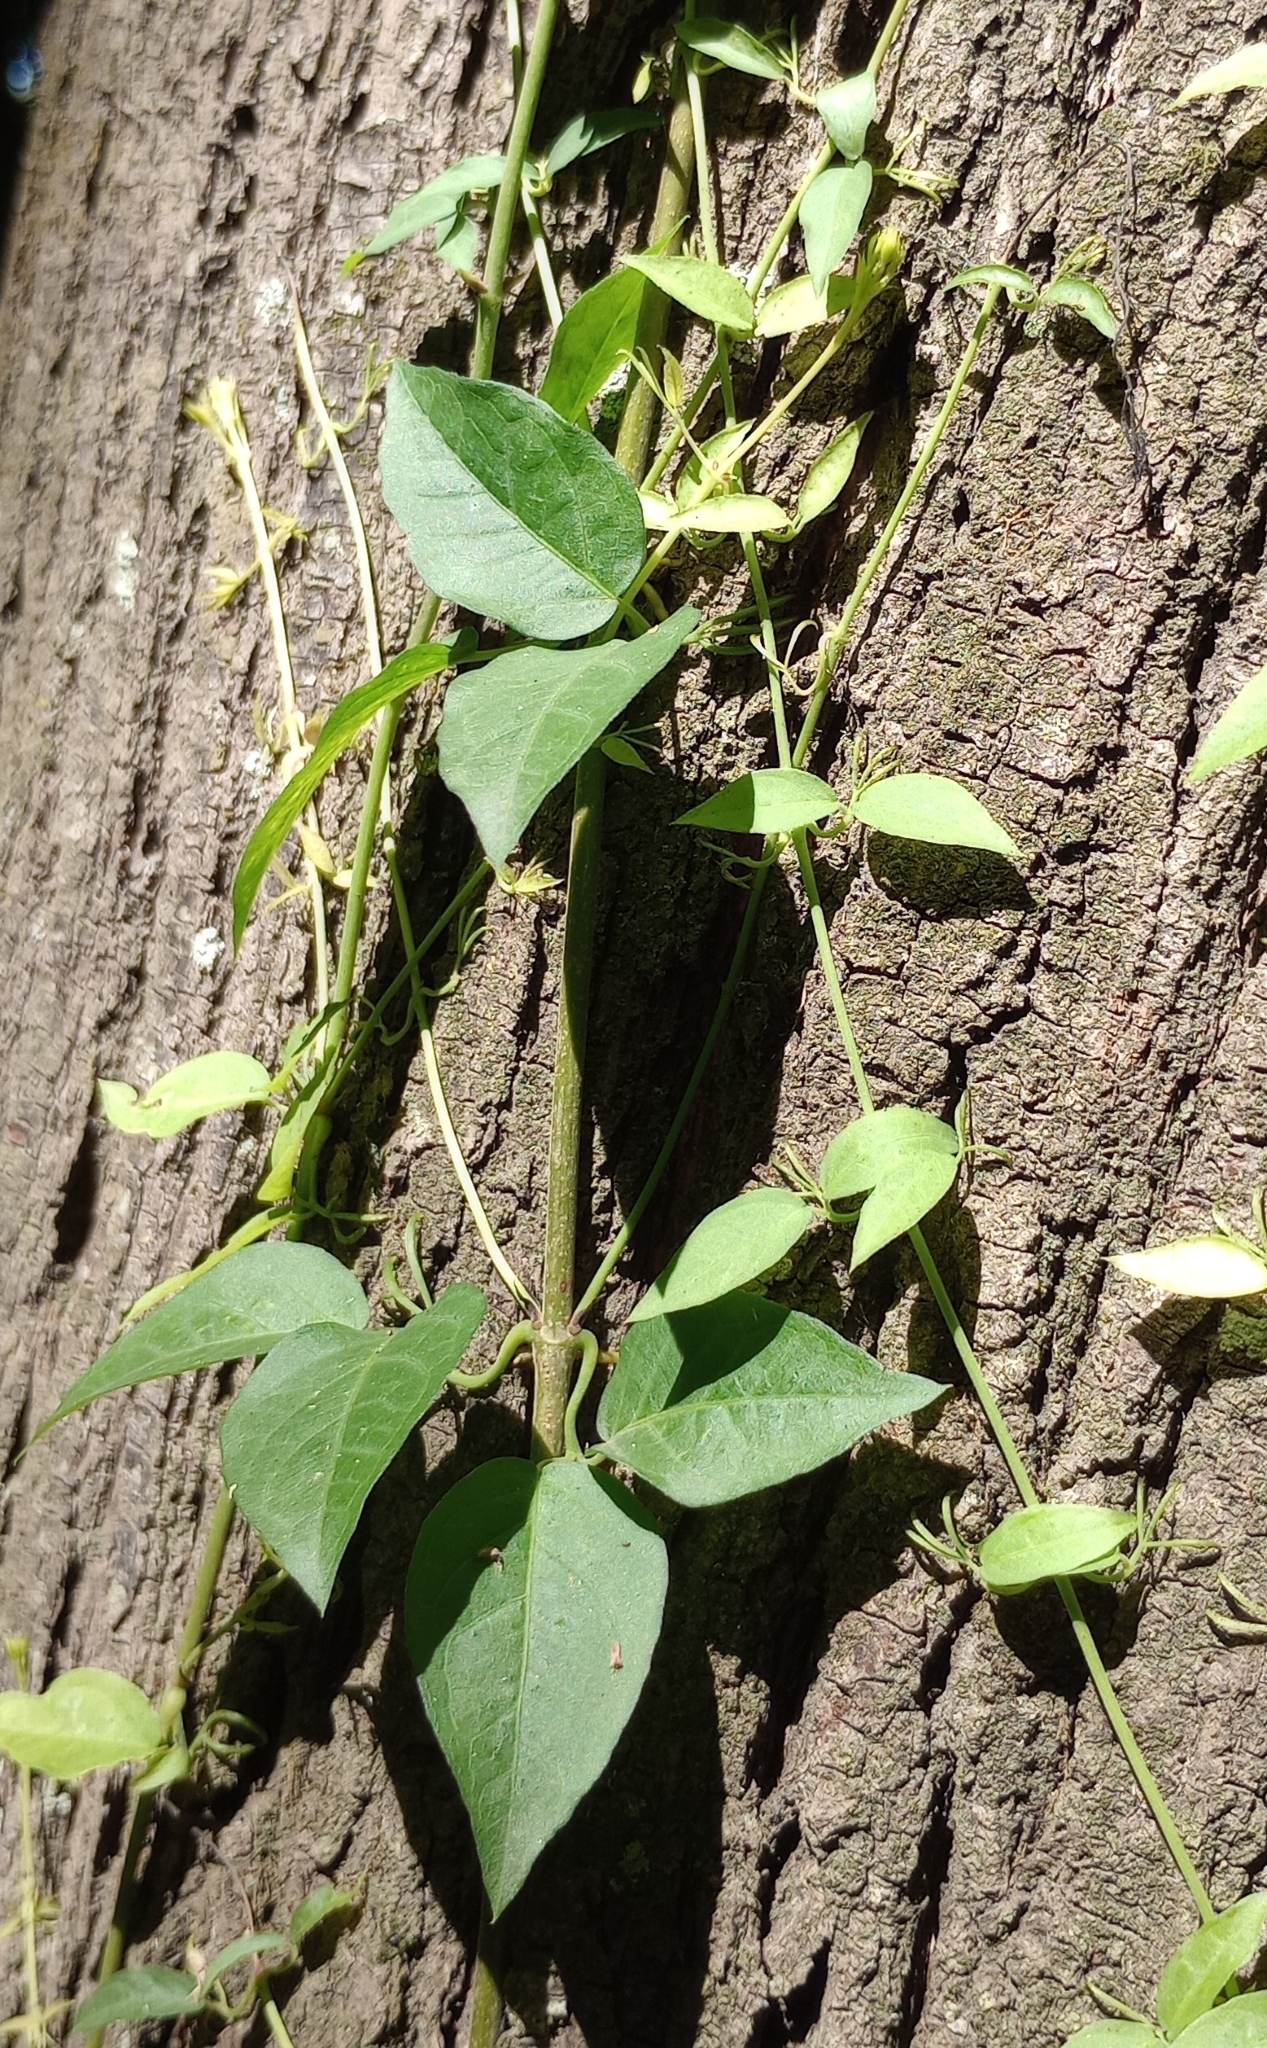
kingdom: Plantae
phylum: Tracheophyta
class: Magnoliopsida
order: Lamiales
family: Bignoniaceae
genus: Dolichandra
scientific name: Dolichandra unguis-cati
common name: Catclaw vine
